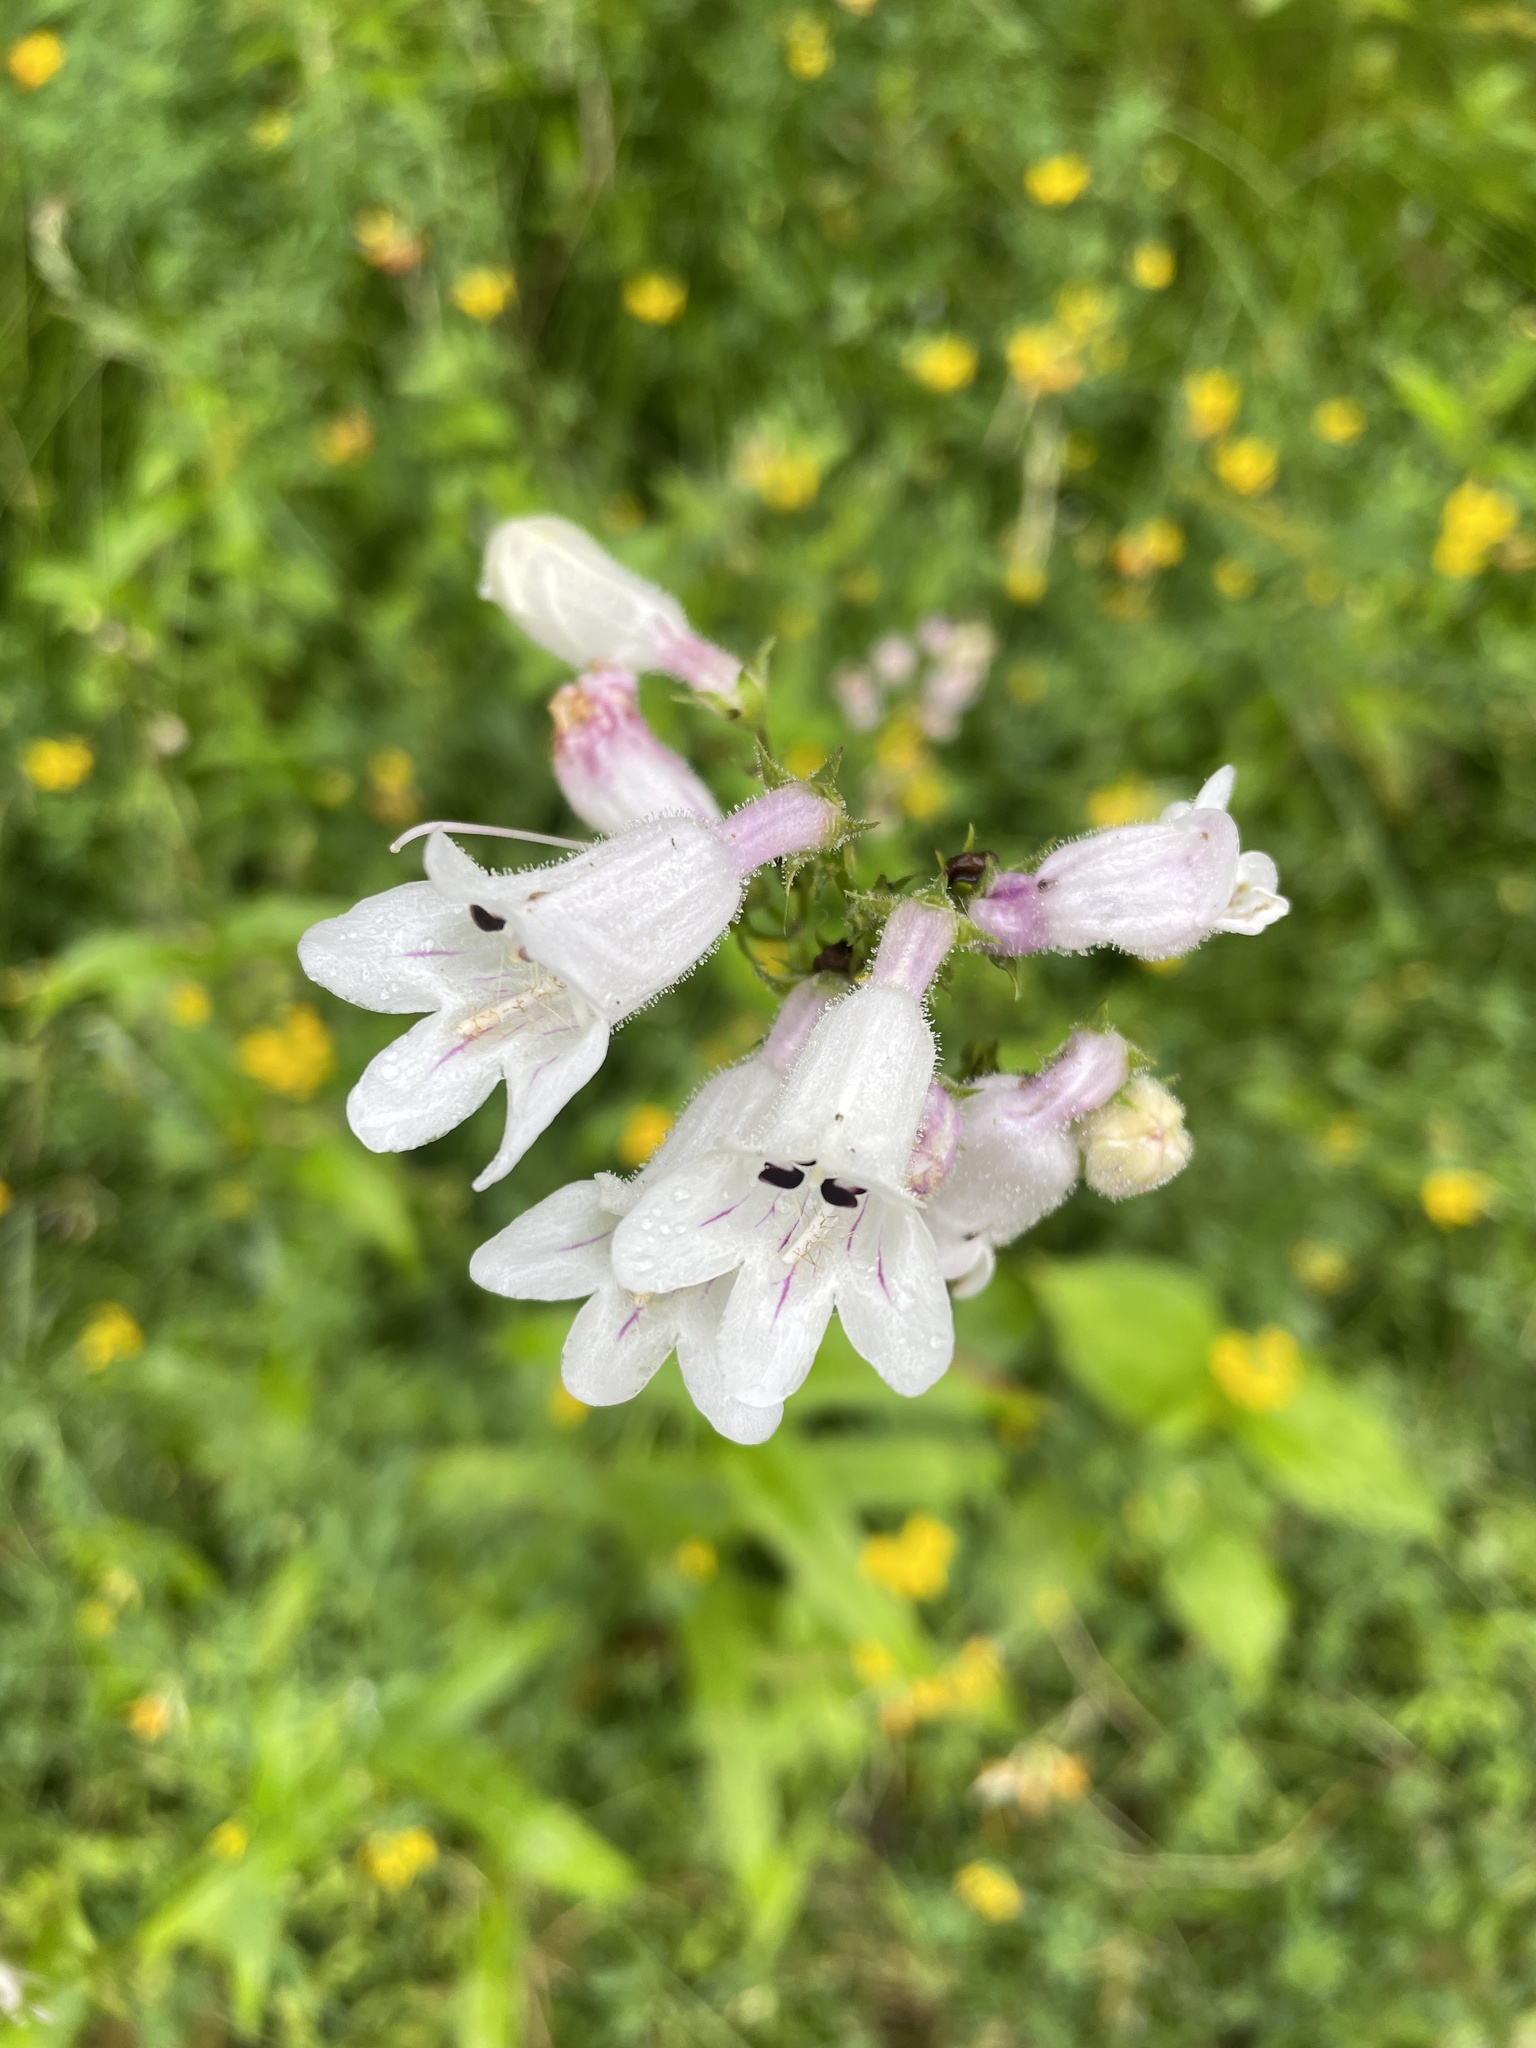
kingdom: Plantae
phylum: Tracheophyta
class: Magnoliopsida
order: Lamiales
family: Plantaginaceae
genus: Penstemon
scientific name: Penstemon digitalis
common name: Foxglove beardtongue
